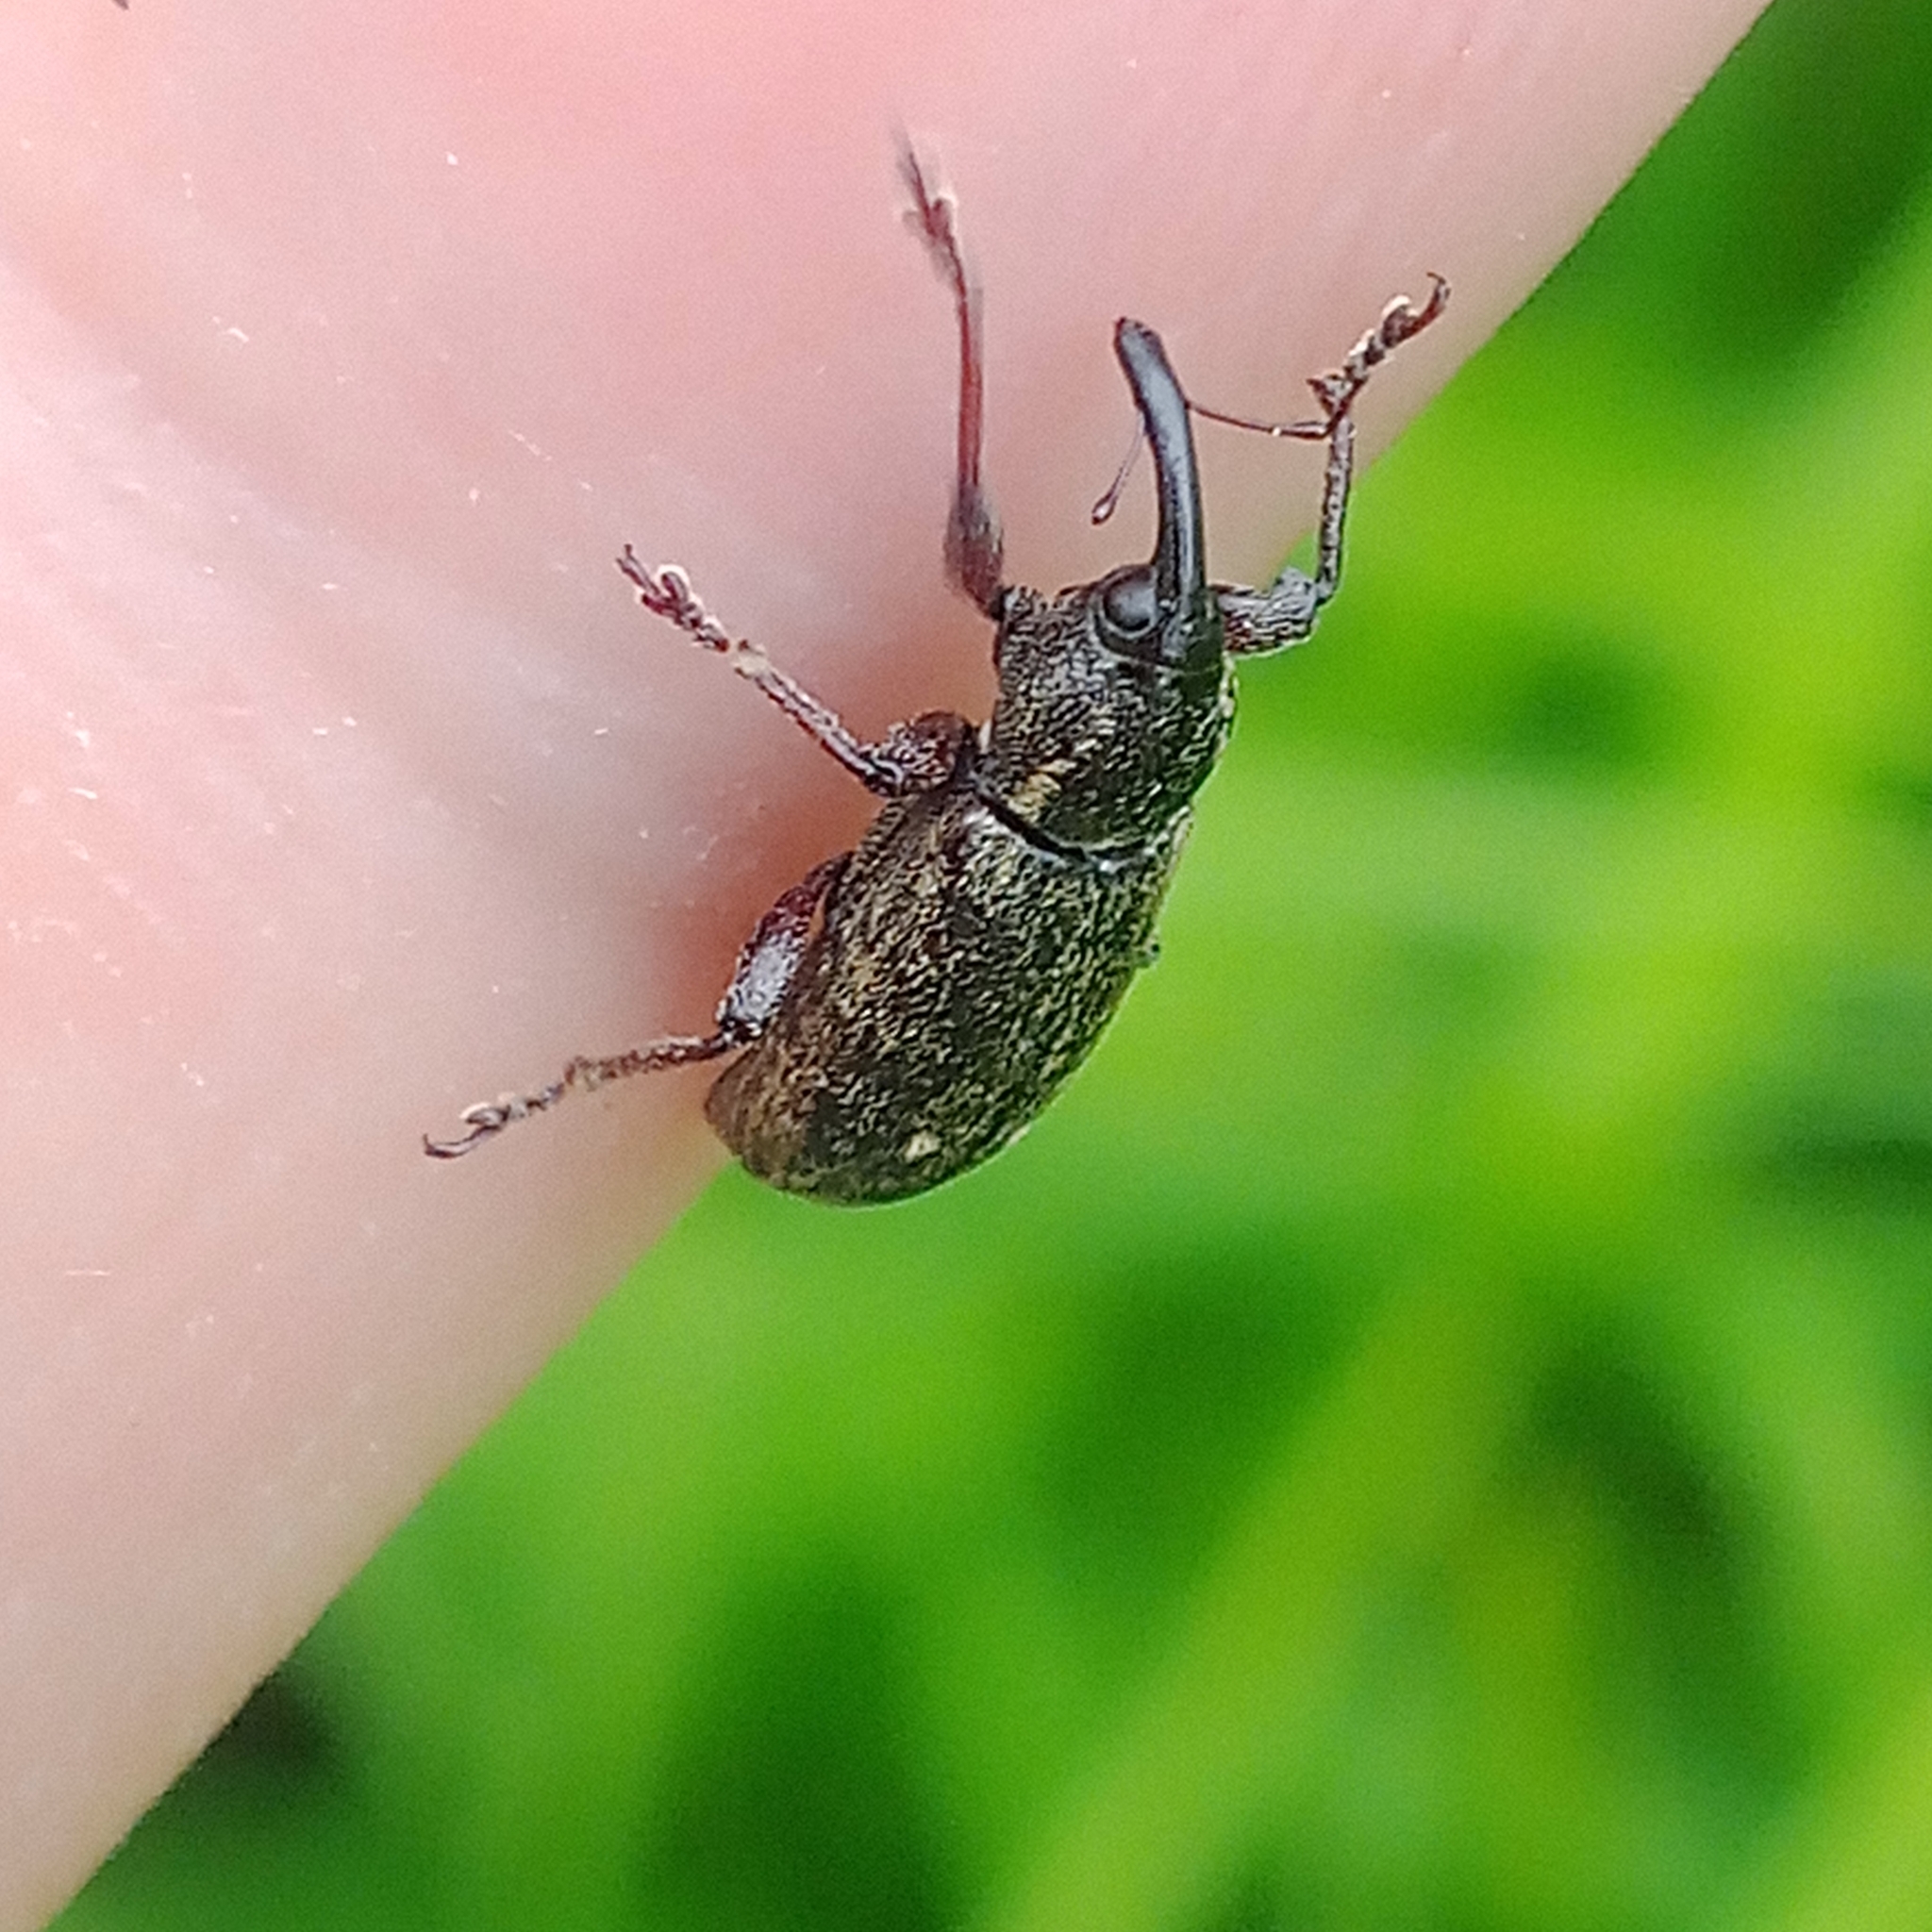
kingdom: Animalia
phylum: Arthropoda
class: Insecta
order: Coleoptera
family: Brachyceridae
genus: Tournotaris
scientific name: Tournotaris bimaculata
